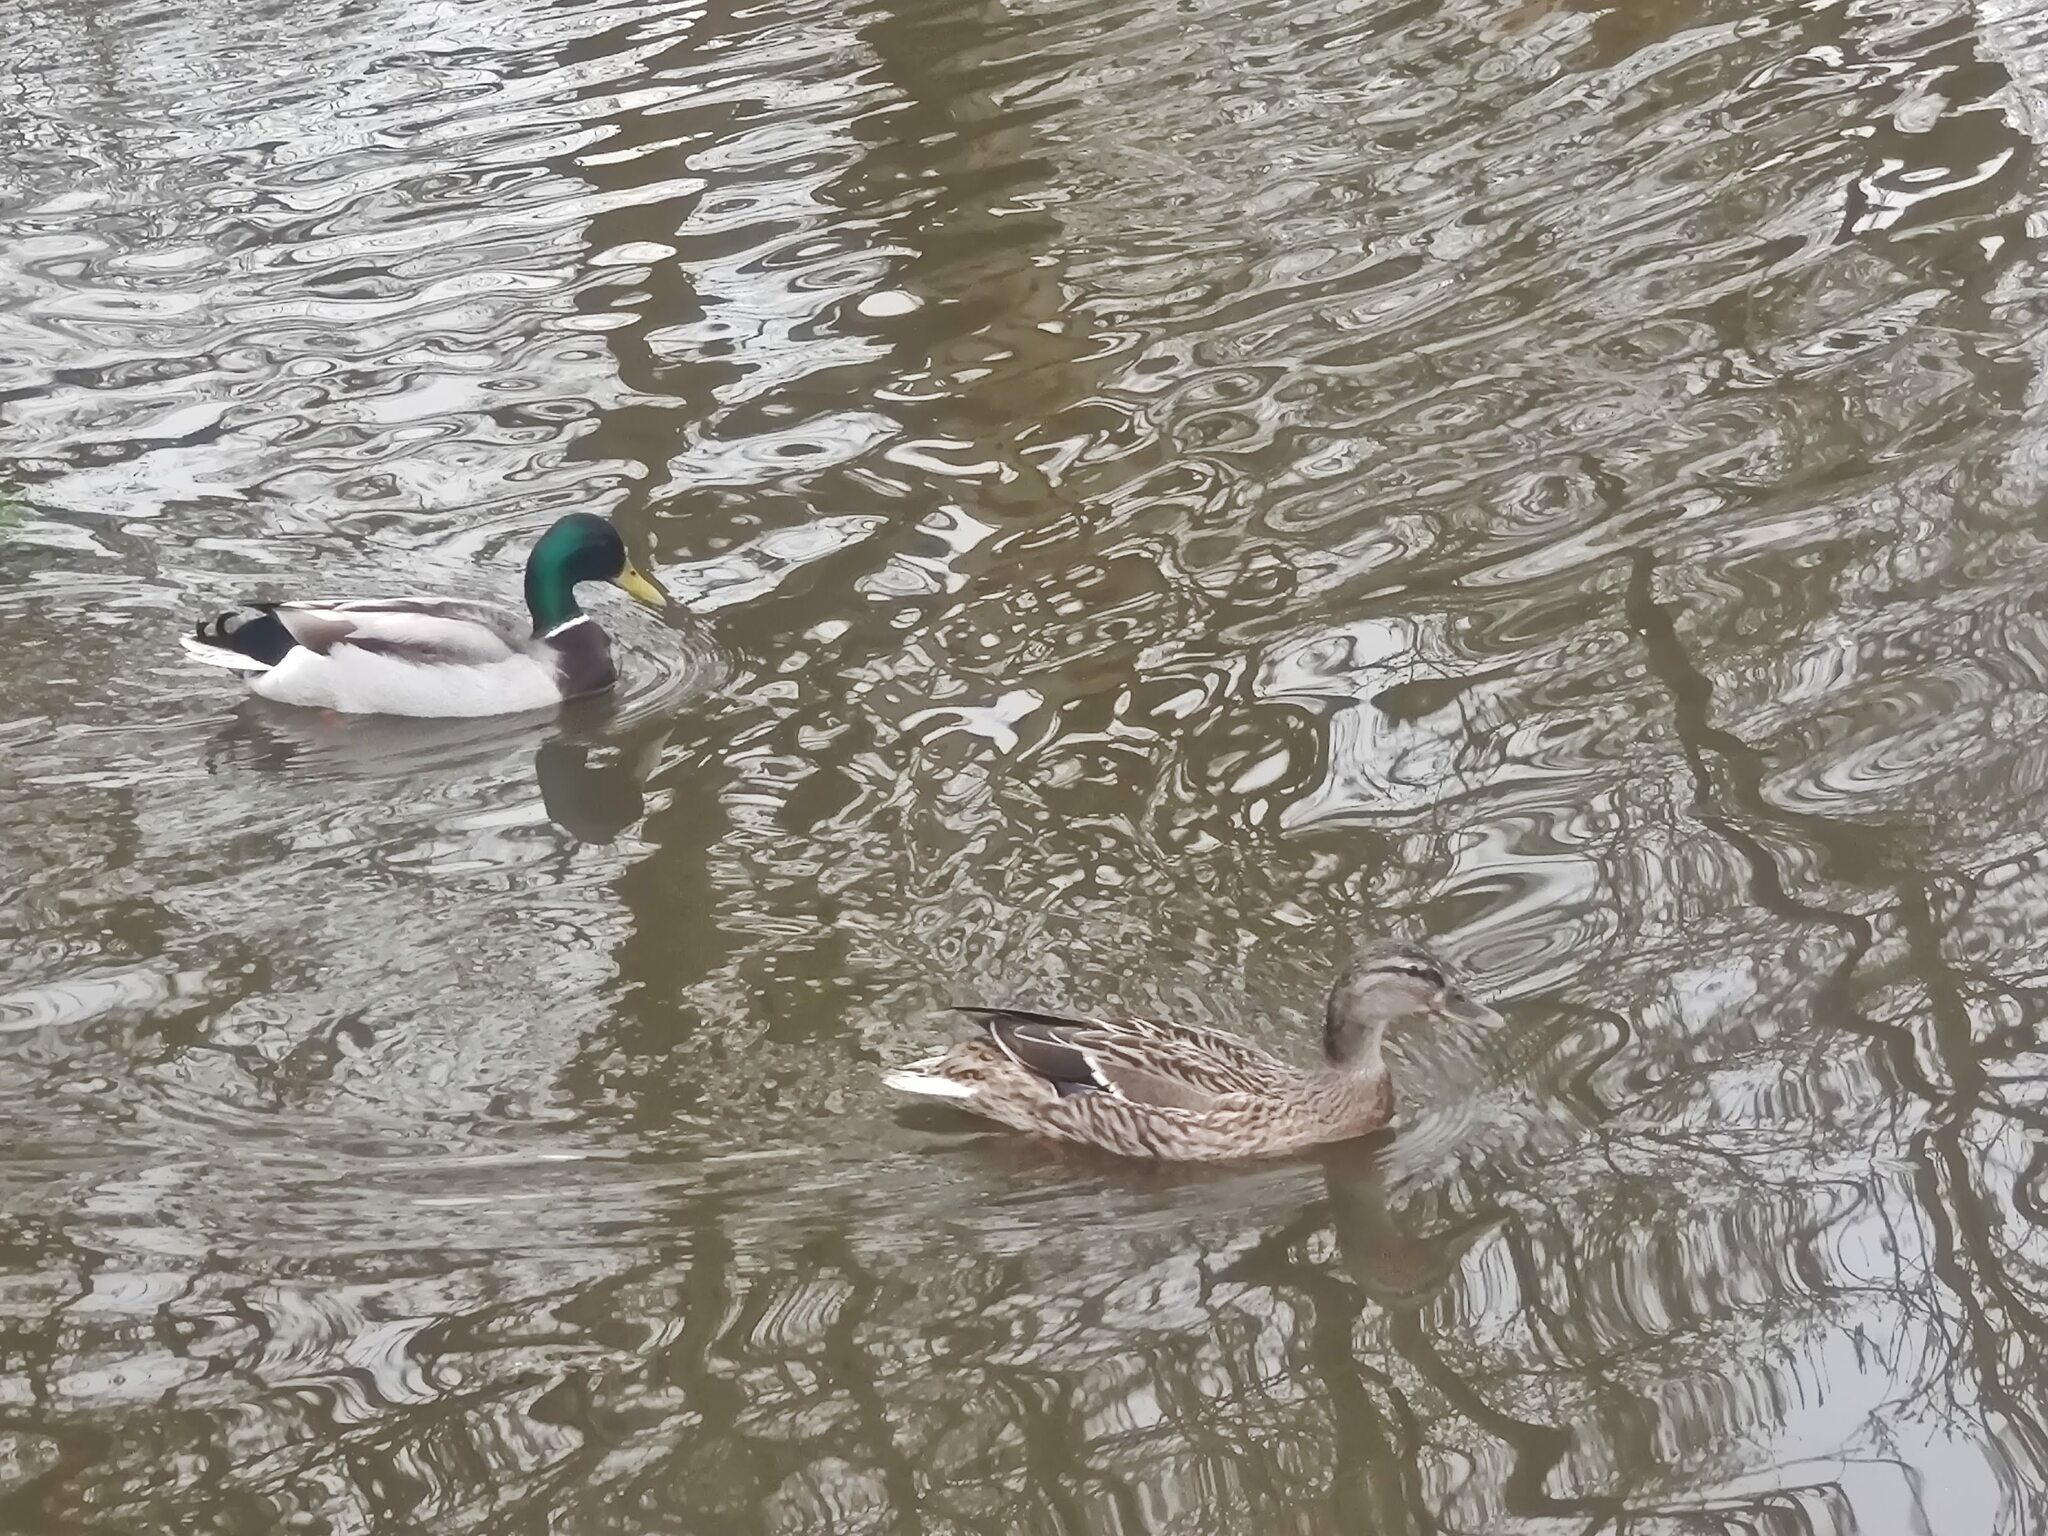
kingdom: Animalia
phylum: Chordata
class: Aves
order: Anseriformes
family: Anatidae
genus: Anas
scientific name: Anas platyrhynchos
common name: Mallard
